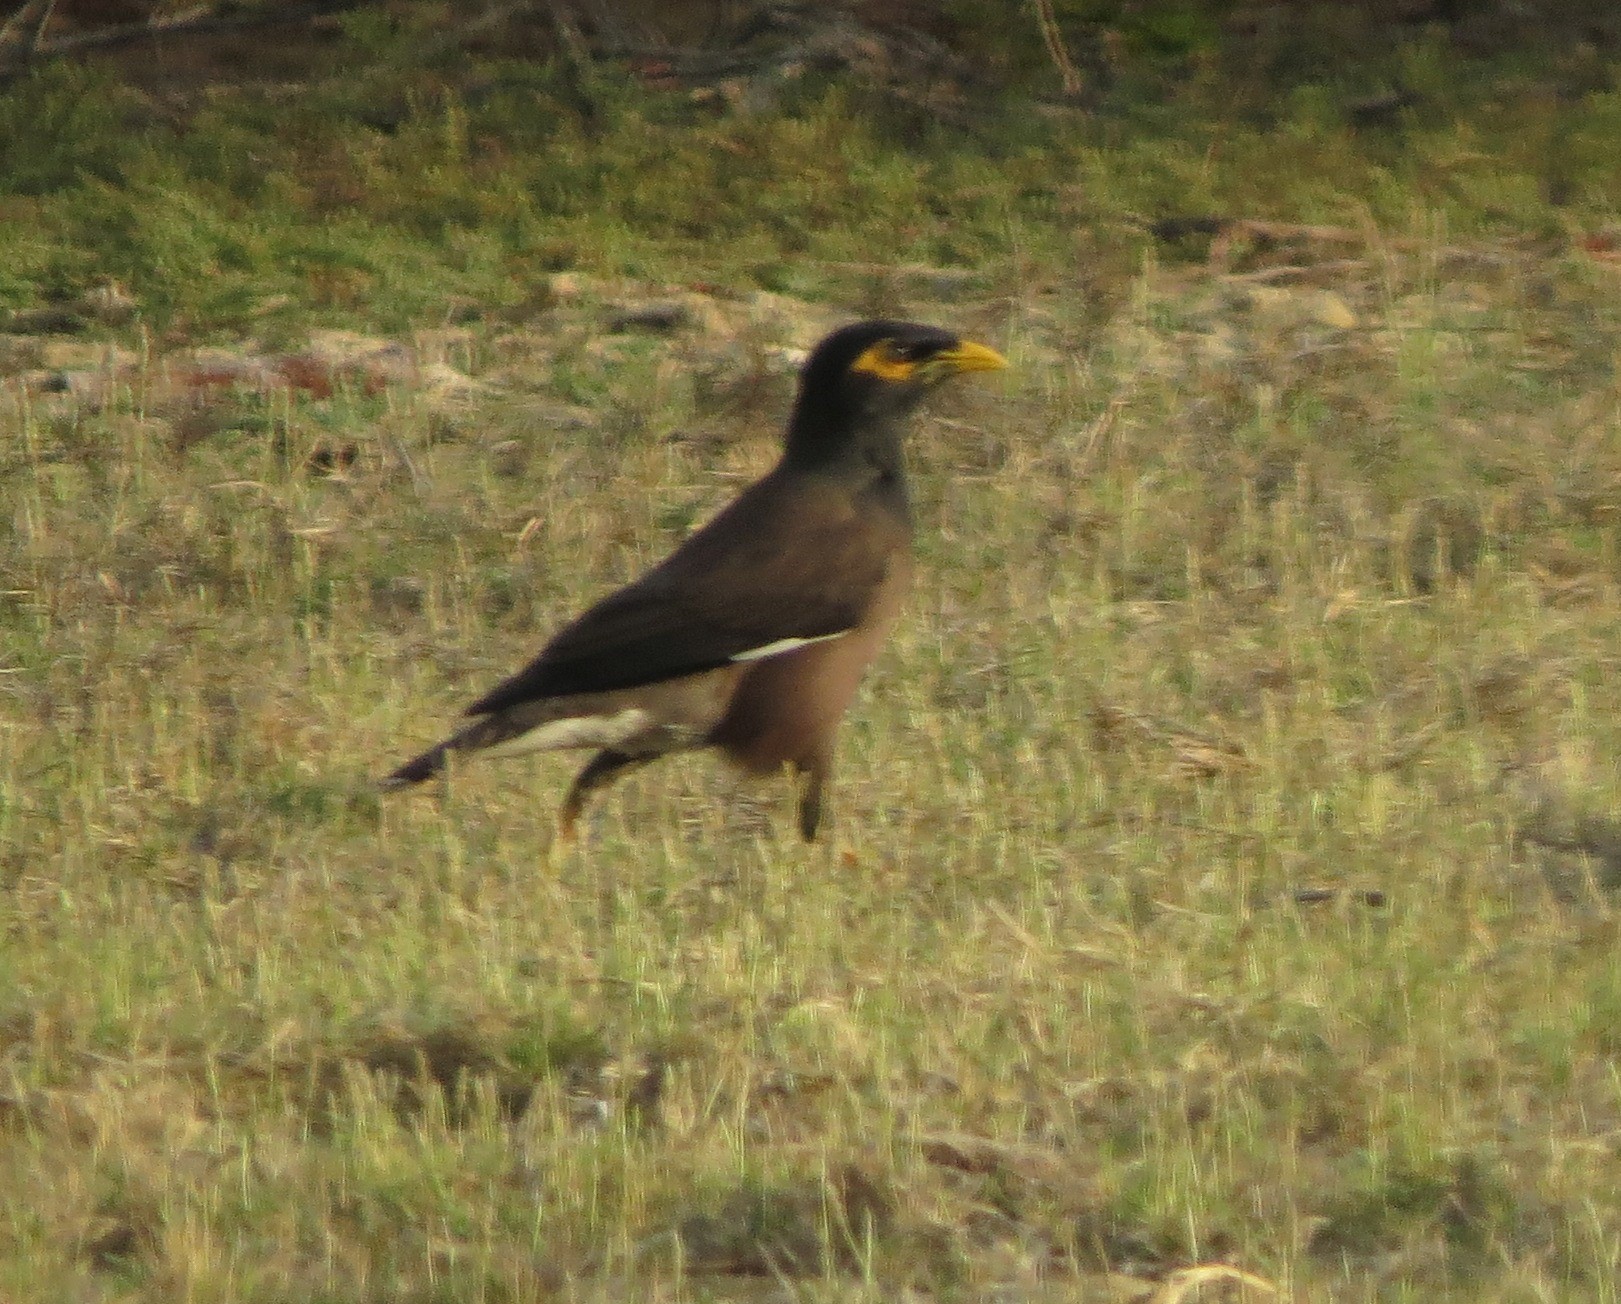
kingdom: Animalia
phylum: Chordata
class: Aves
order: Passeriformes
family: Sturnidae
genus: Acridotheres
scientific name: Acridotheres tristis
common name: Common myna
